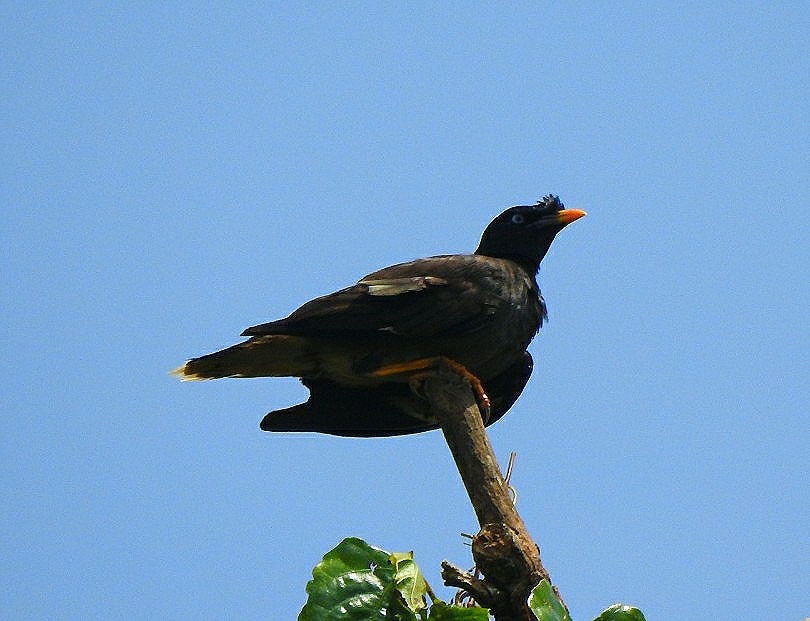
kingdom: Animalia
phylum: Chordata
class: Aves
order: Passeriformes
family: Sturnidae
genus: Acridotheres
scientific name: Acridotheres fuscus
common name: Jungle myna
